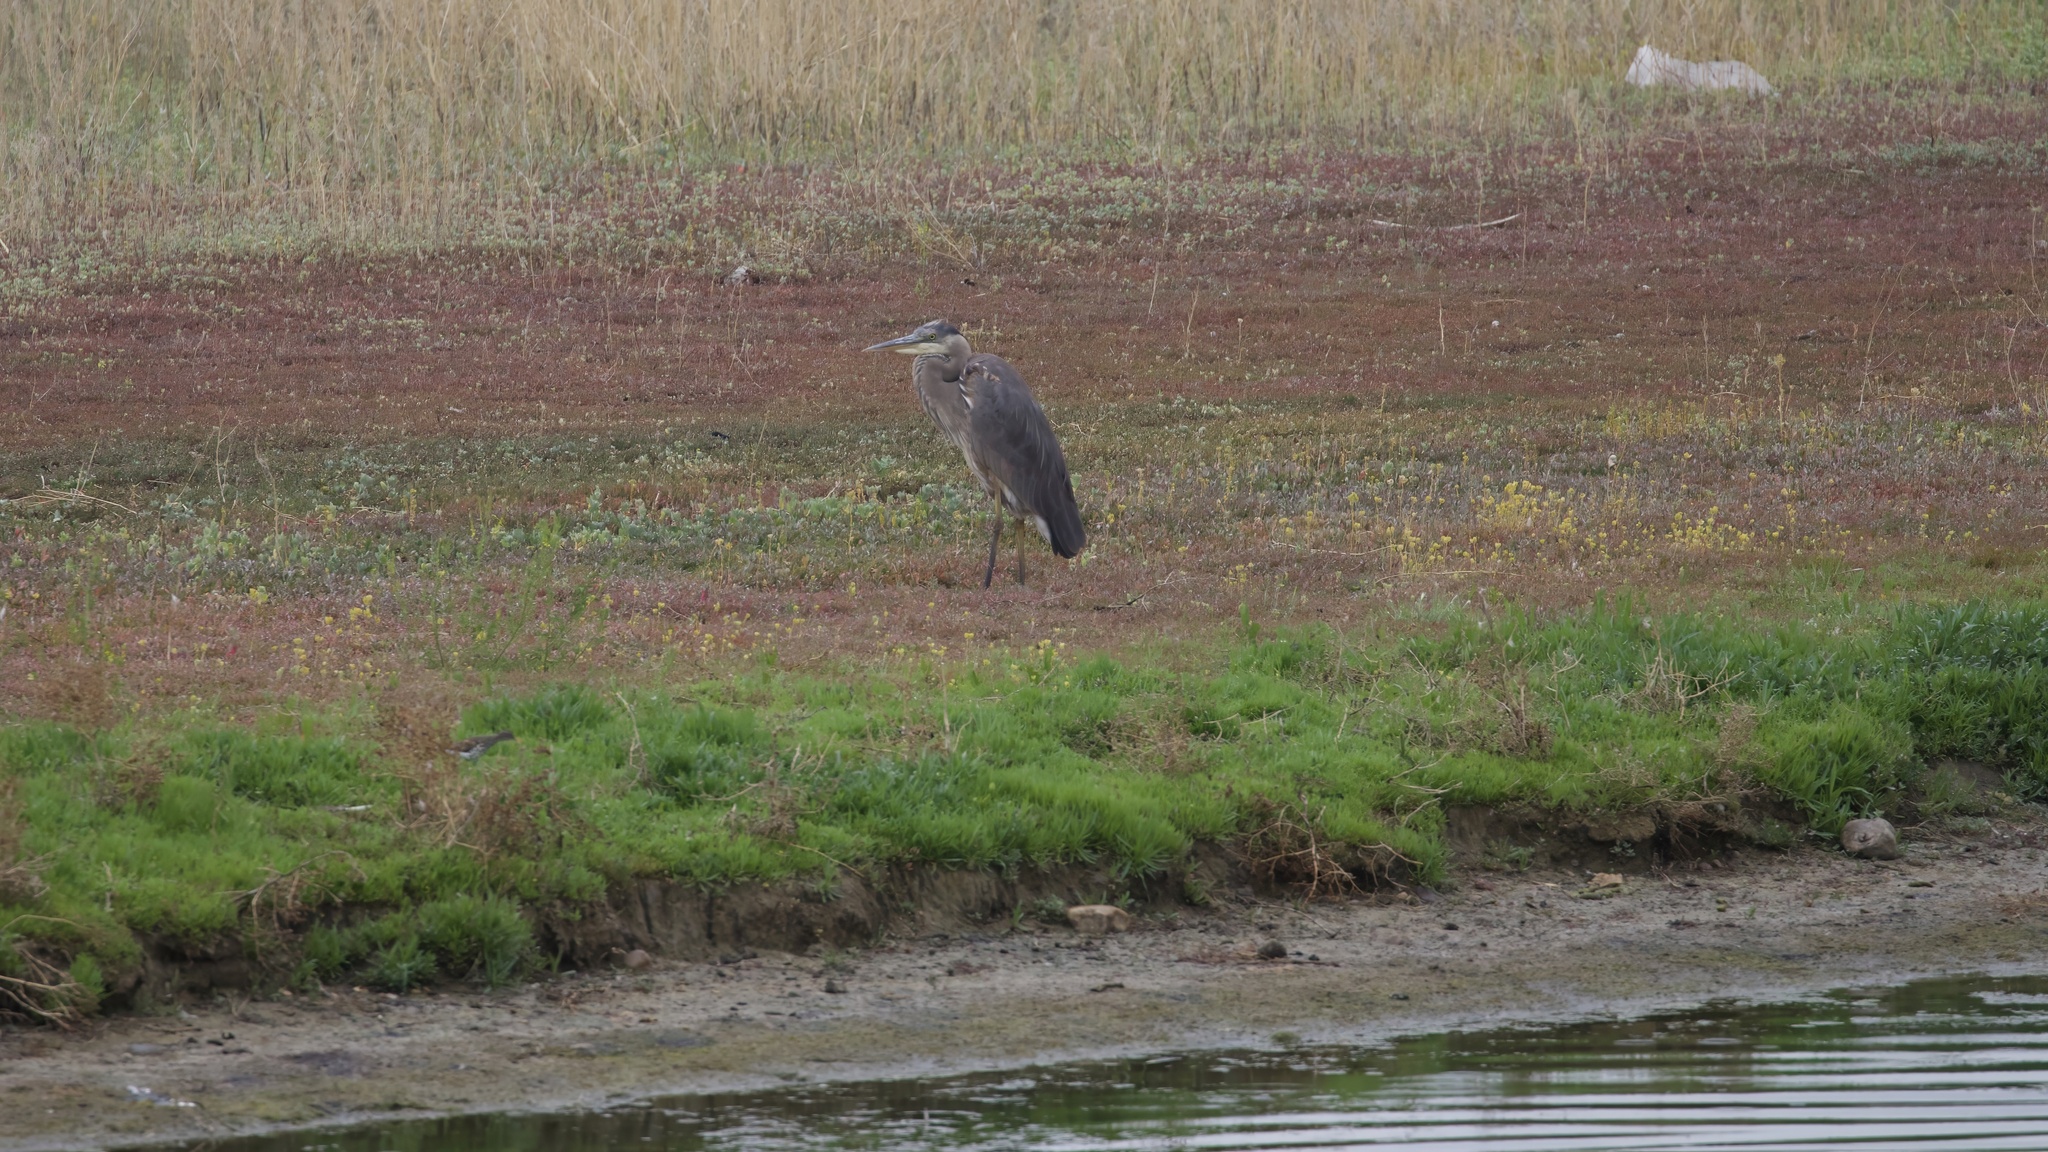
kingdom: Animalia
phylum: Chordata
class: Aves
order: Pelecaniformes
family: Ardeidae
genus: Ardea
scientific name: Ardea herodias
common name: Great blue heron
